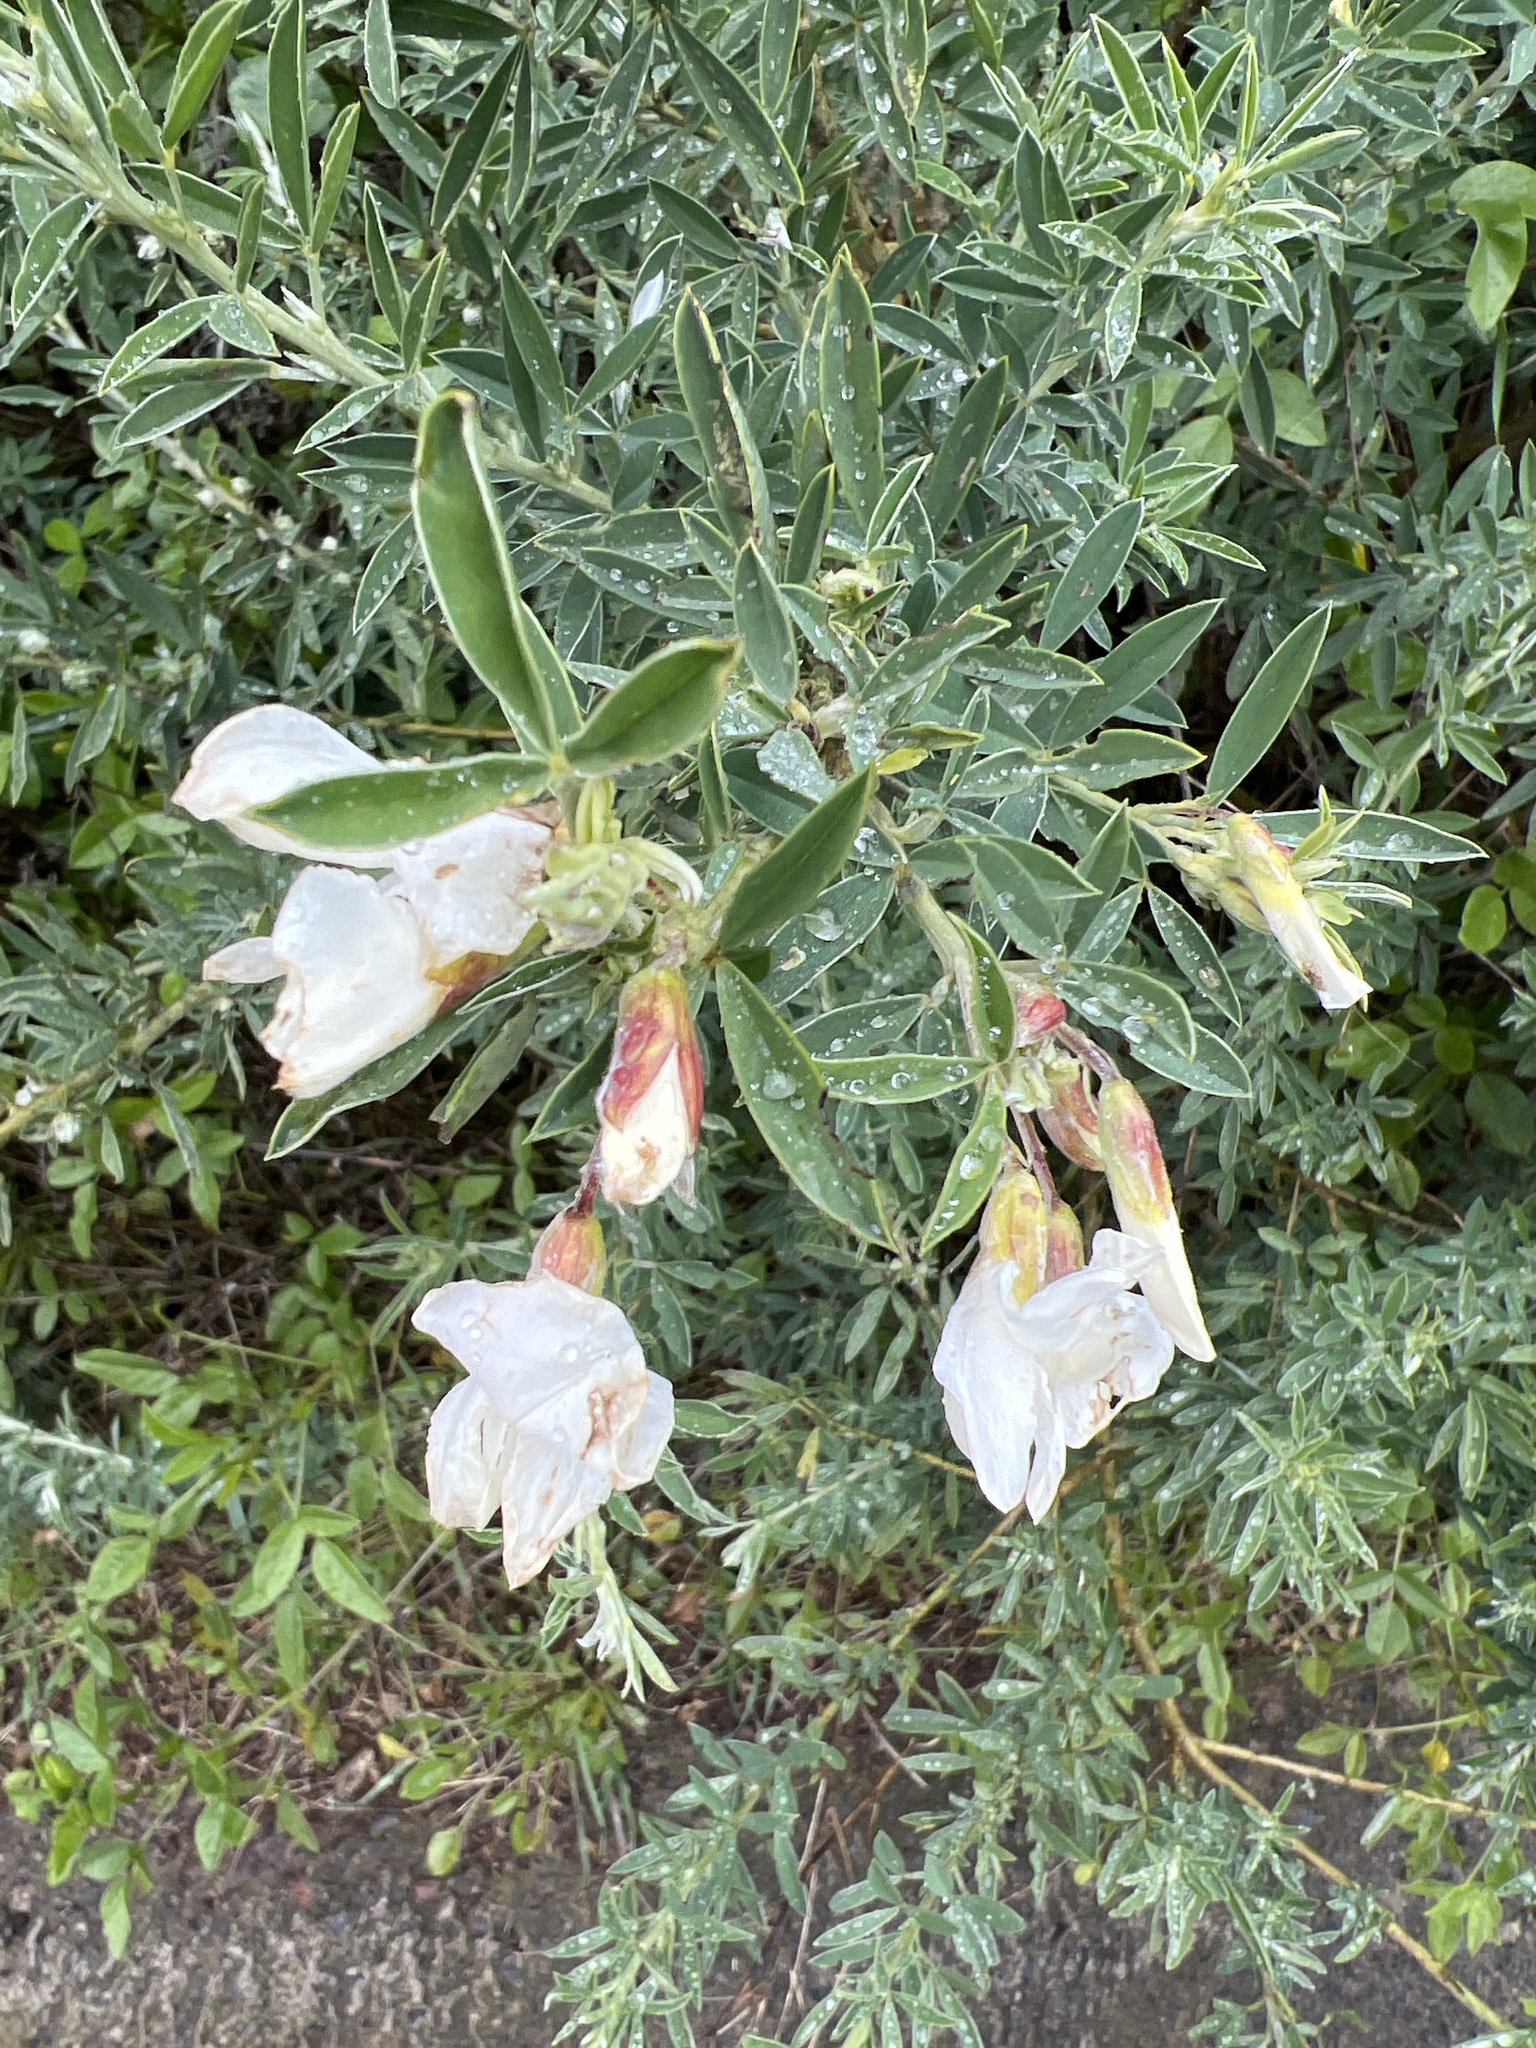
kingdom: Plantae
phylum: Tracheophyta
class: Magnoliopsida
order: Fabales
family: Fabaceae
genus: Chamaecytisus
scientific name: Chamaecytisus prolifer
